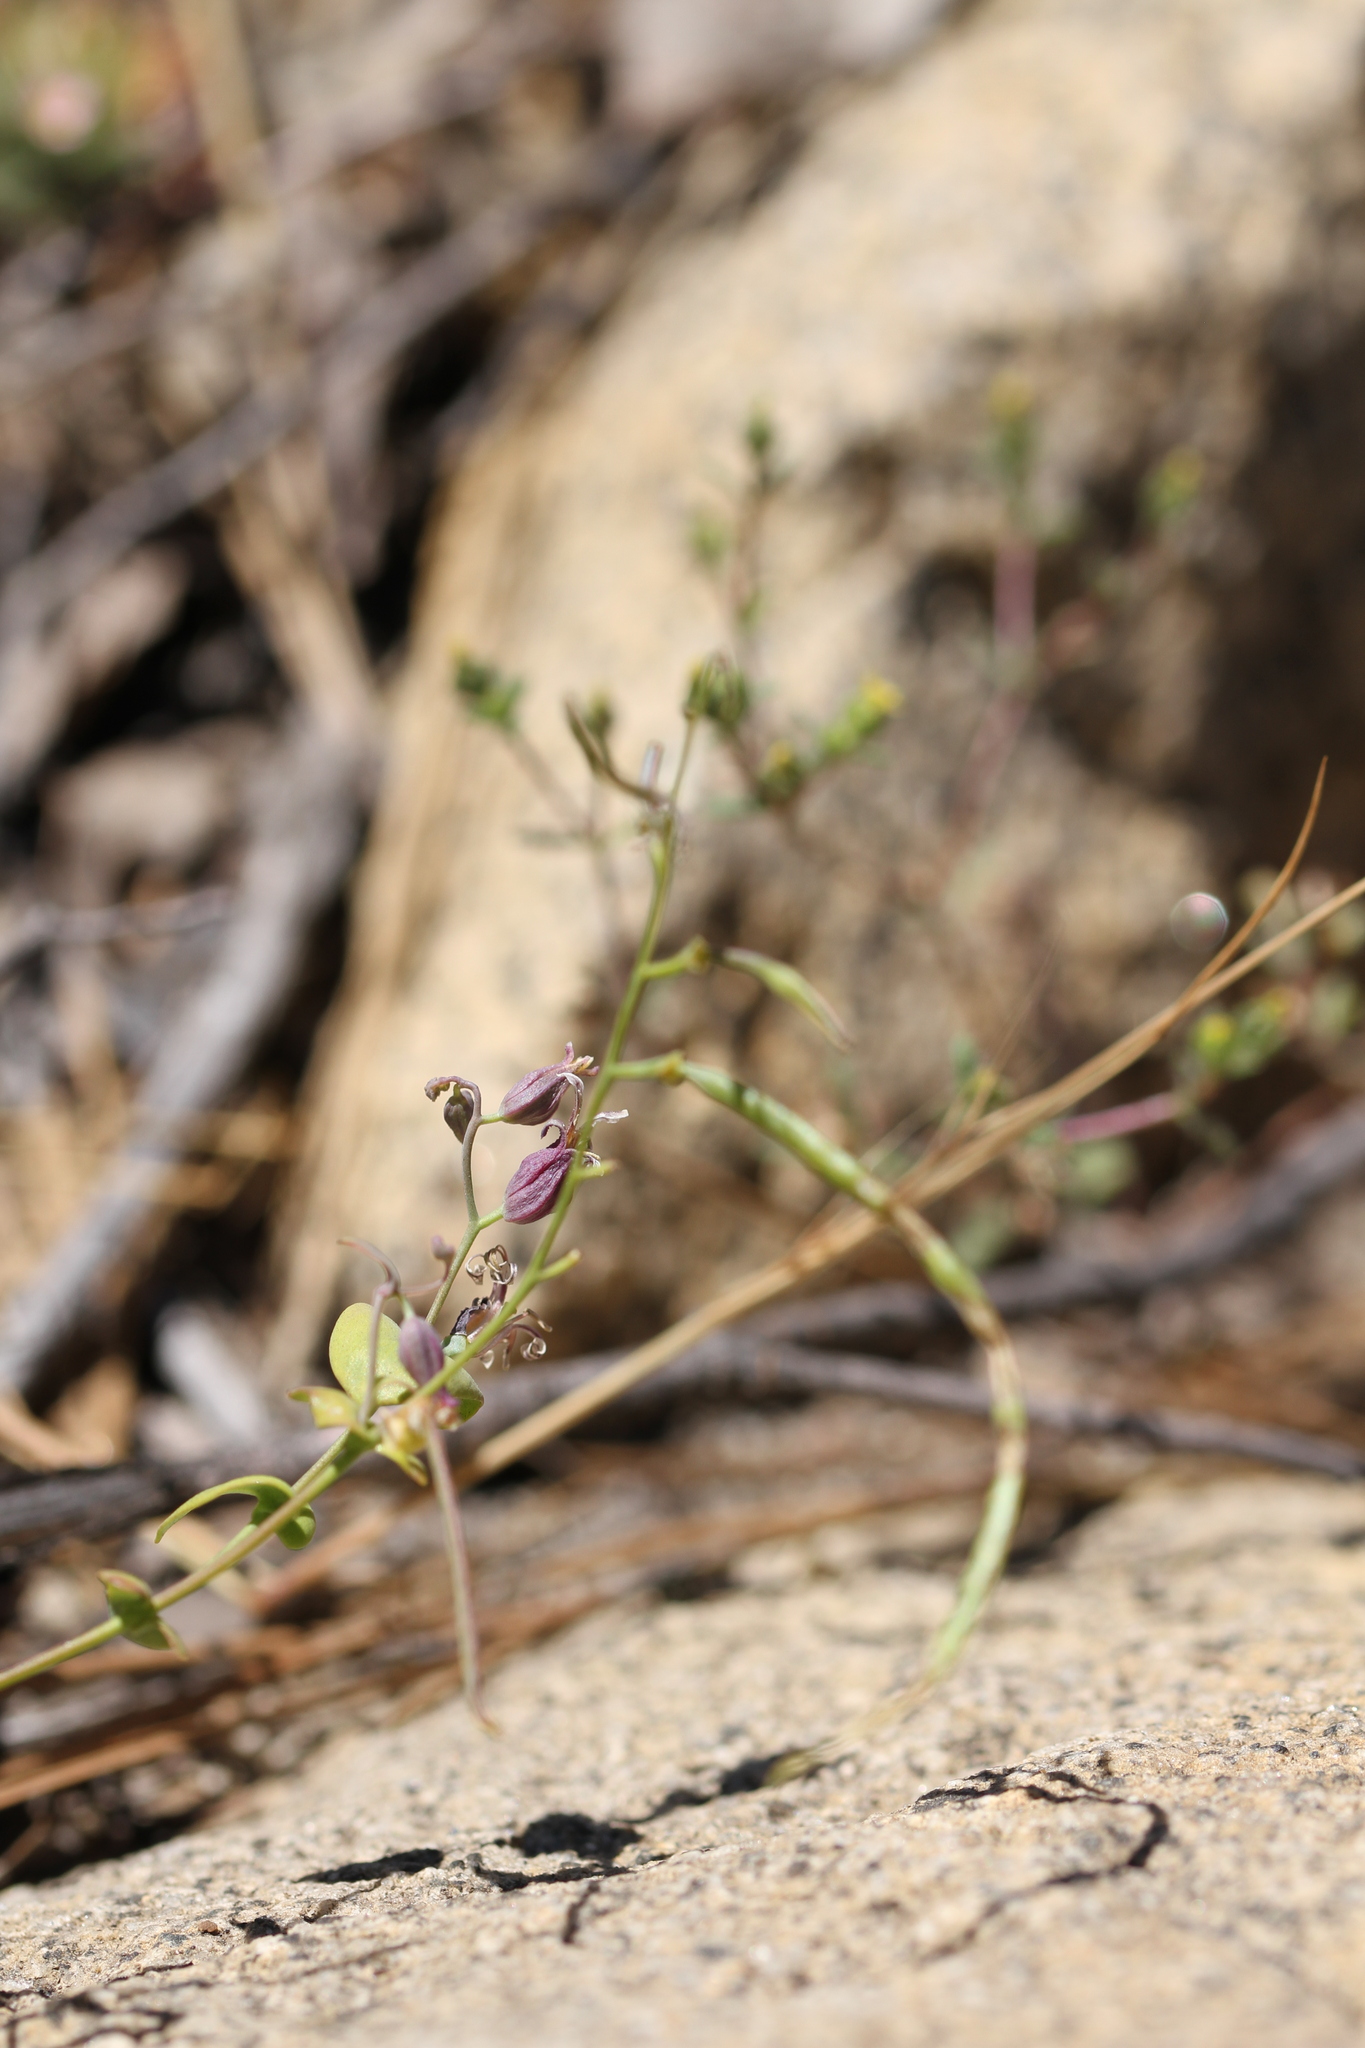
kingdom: Plantae
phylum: Tracheophyta
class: Magnoliopsida
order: Brassicales
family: Brassicaceae
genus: Streptanthus
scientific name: Streptanthus tortuosus
